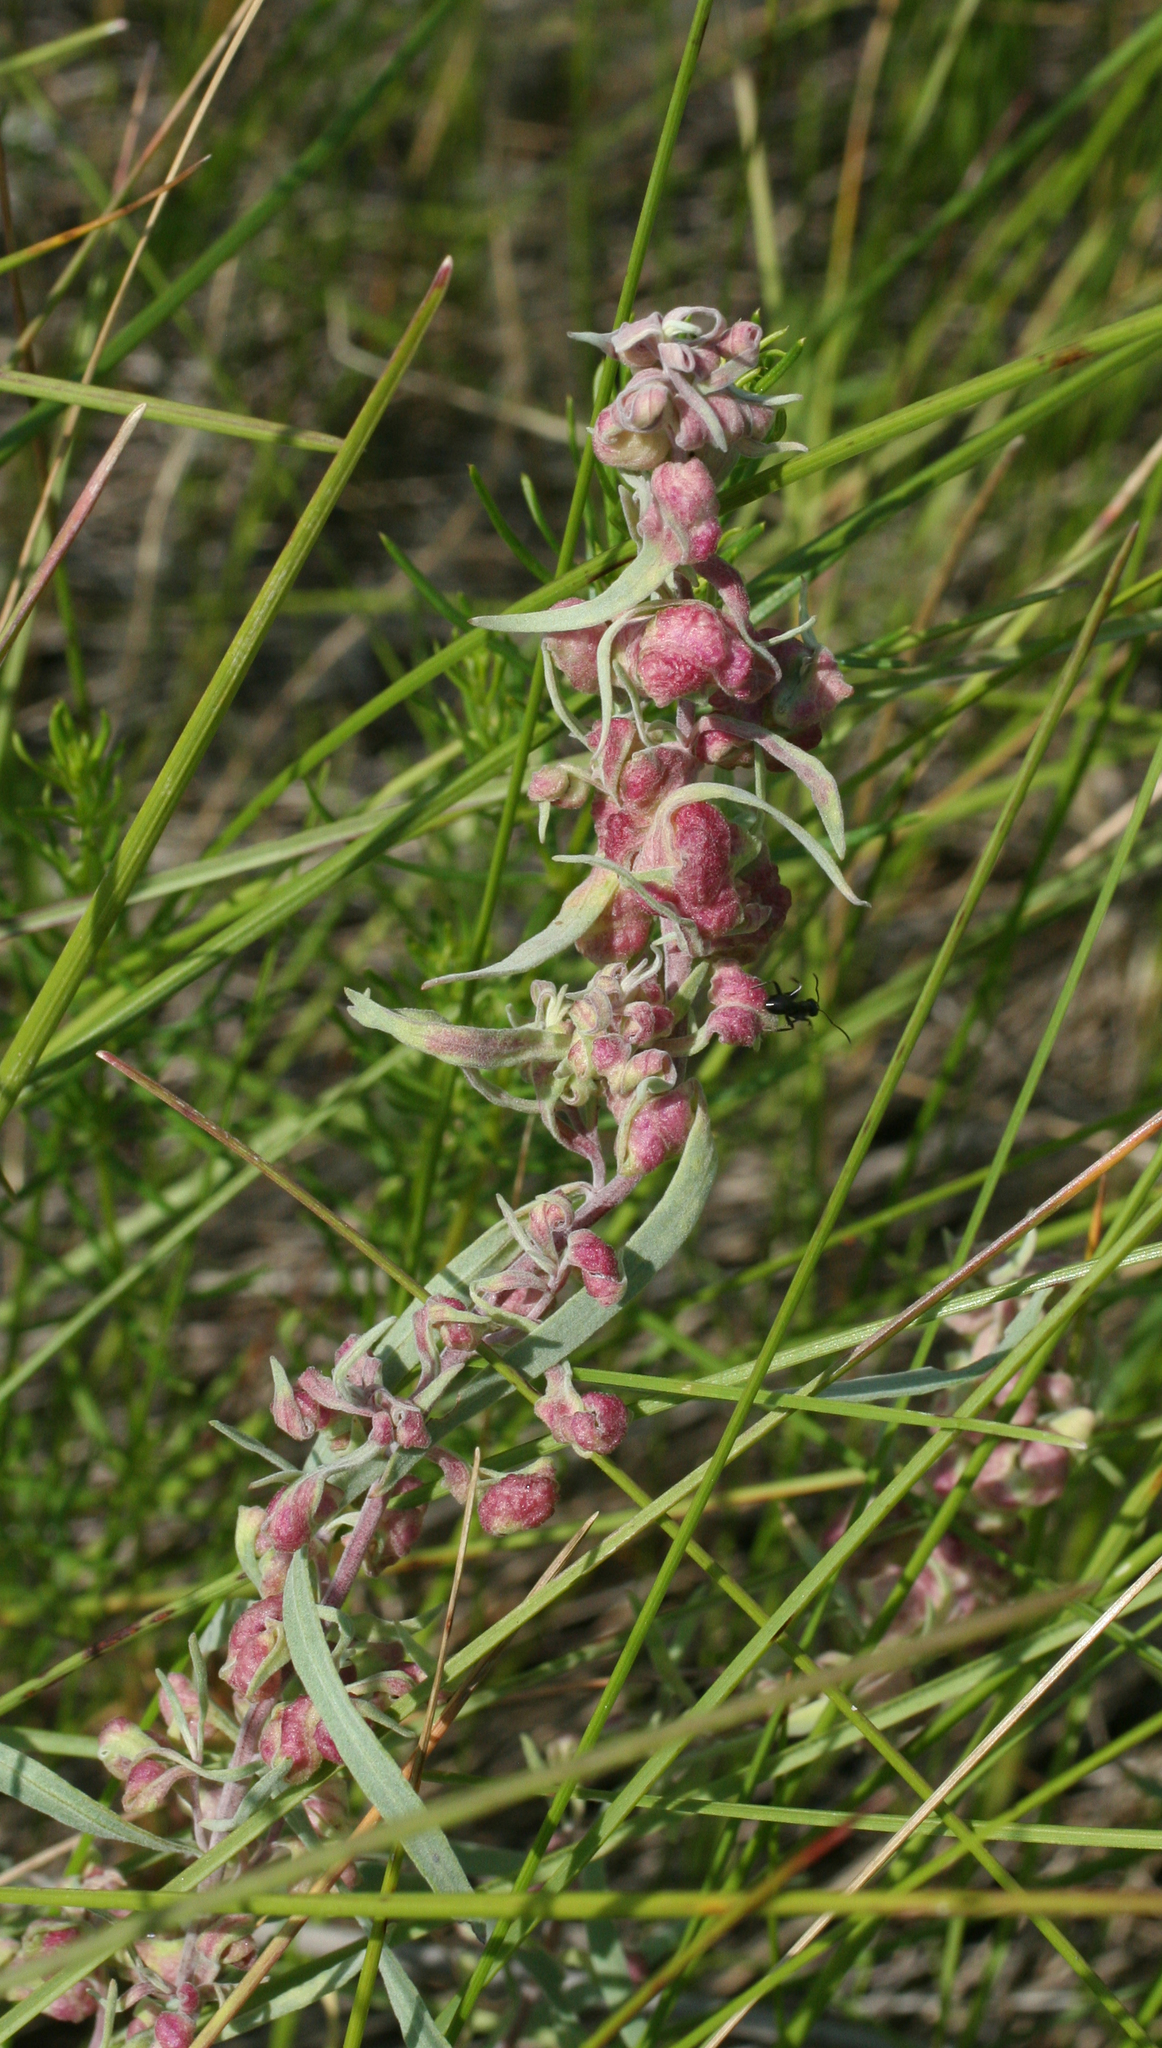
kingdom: Plantae
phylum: Tracheophyta
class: Magnoliopsida
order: Asterales
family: Asteraceae
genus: Artemisia
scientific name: Artemisia glauca
